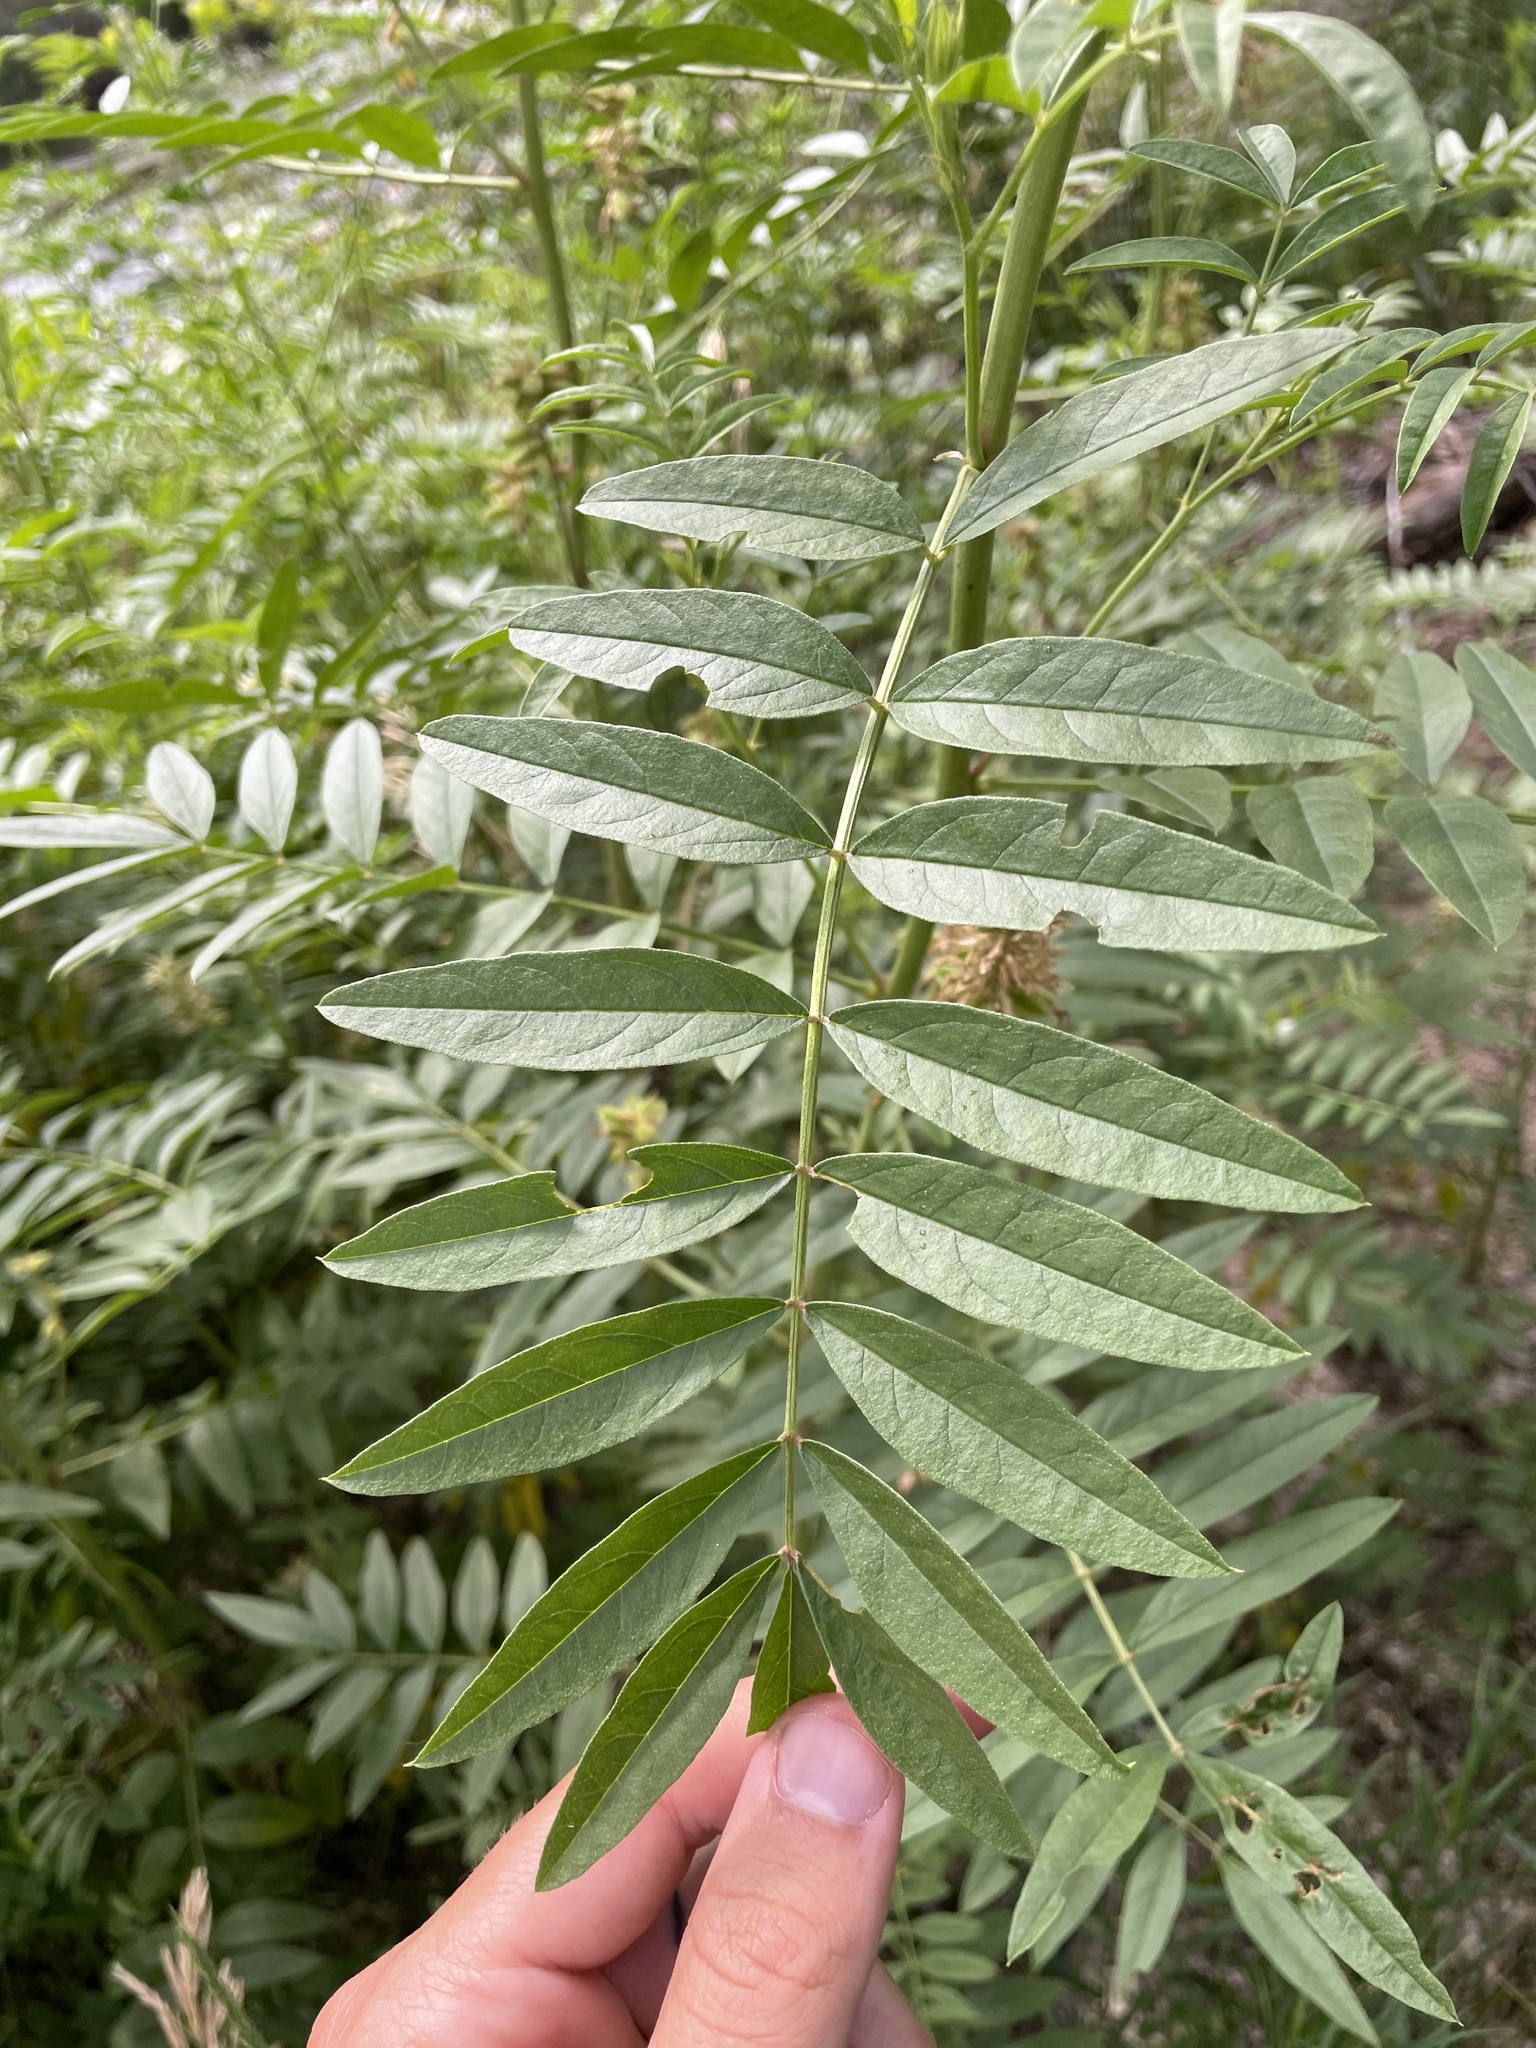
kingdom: Plantae
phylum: Tracheophyta
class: Magnoliopsida
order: Fabales
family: Fabaceae
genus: Glycyrrhiza
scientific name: Glycyrrhiza lepidota
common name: American liquorice
